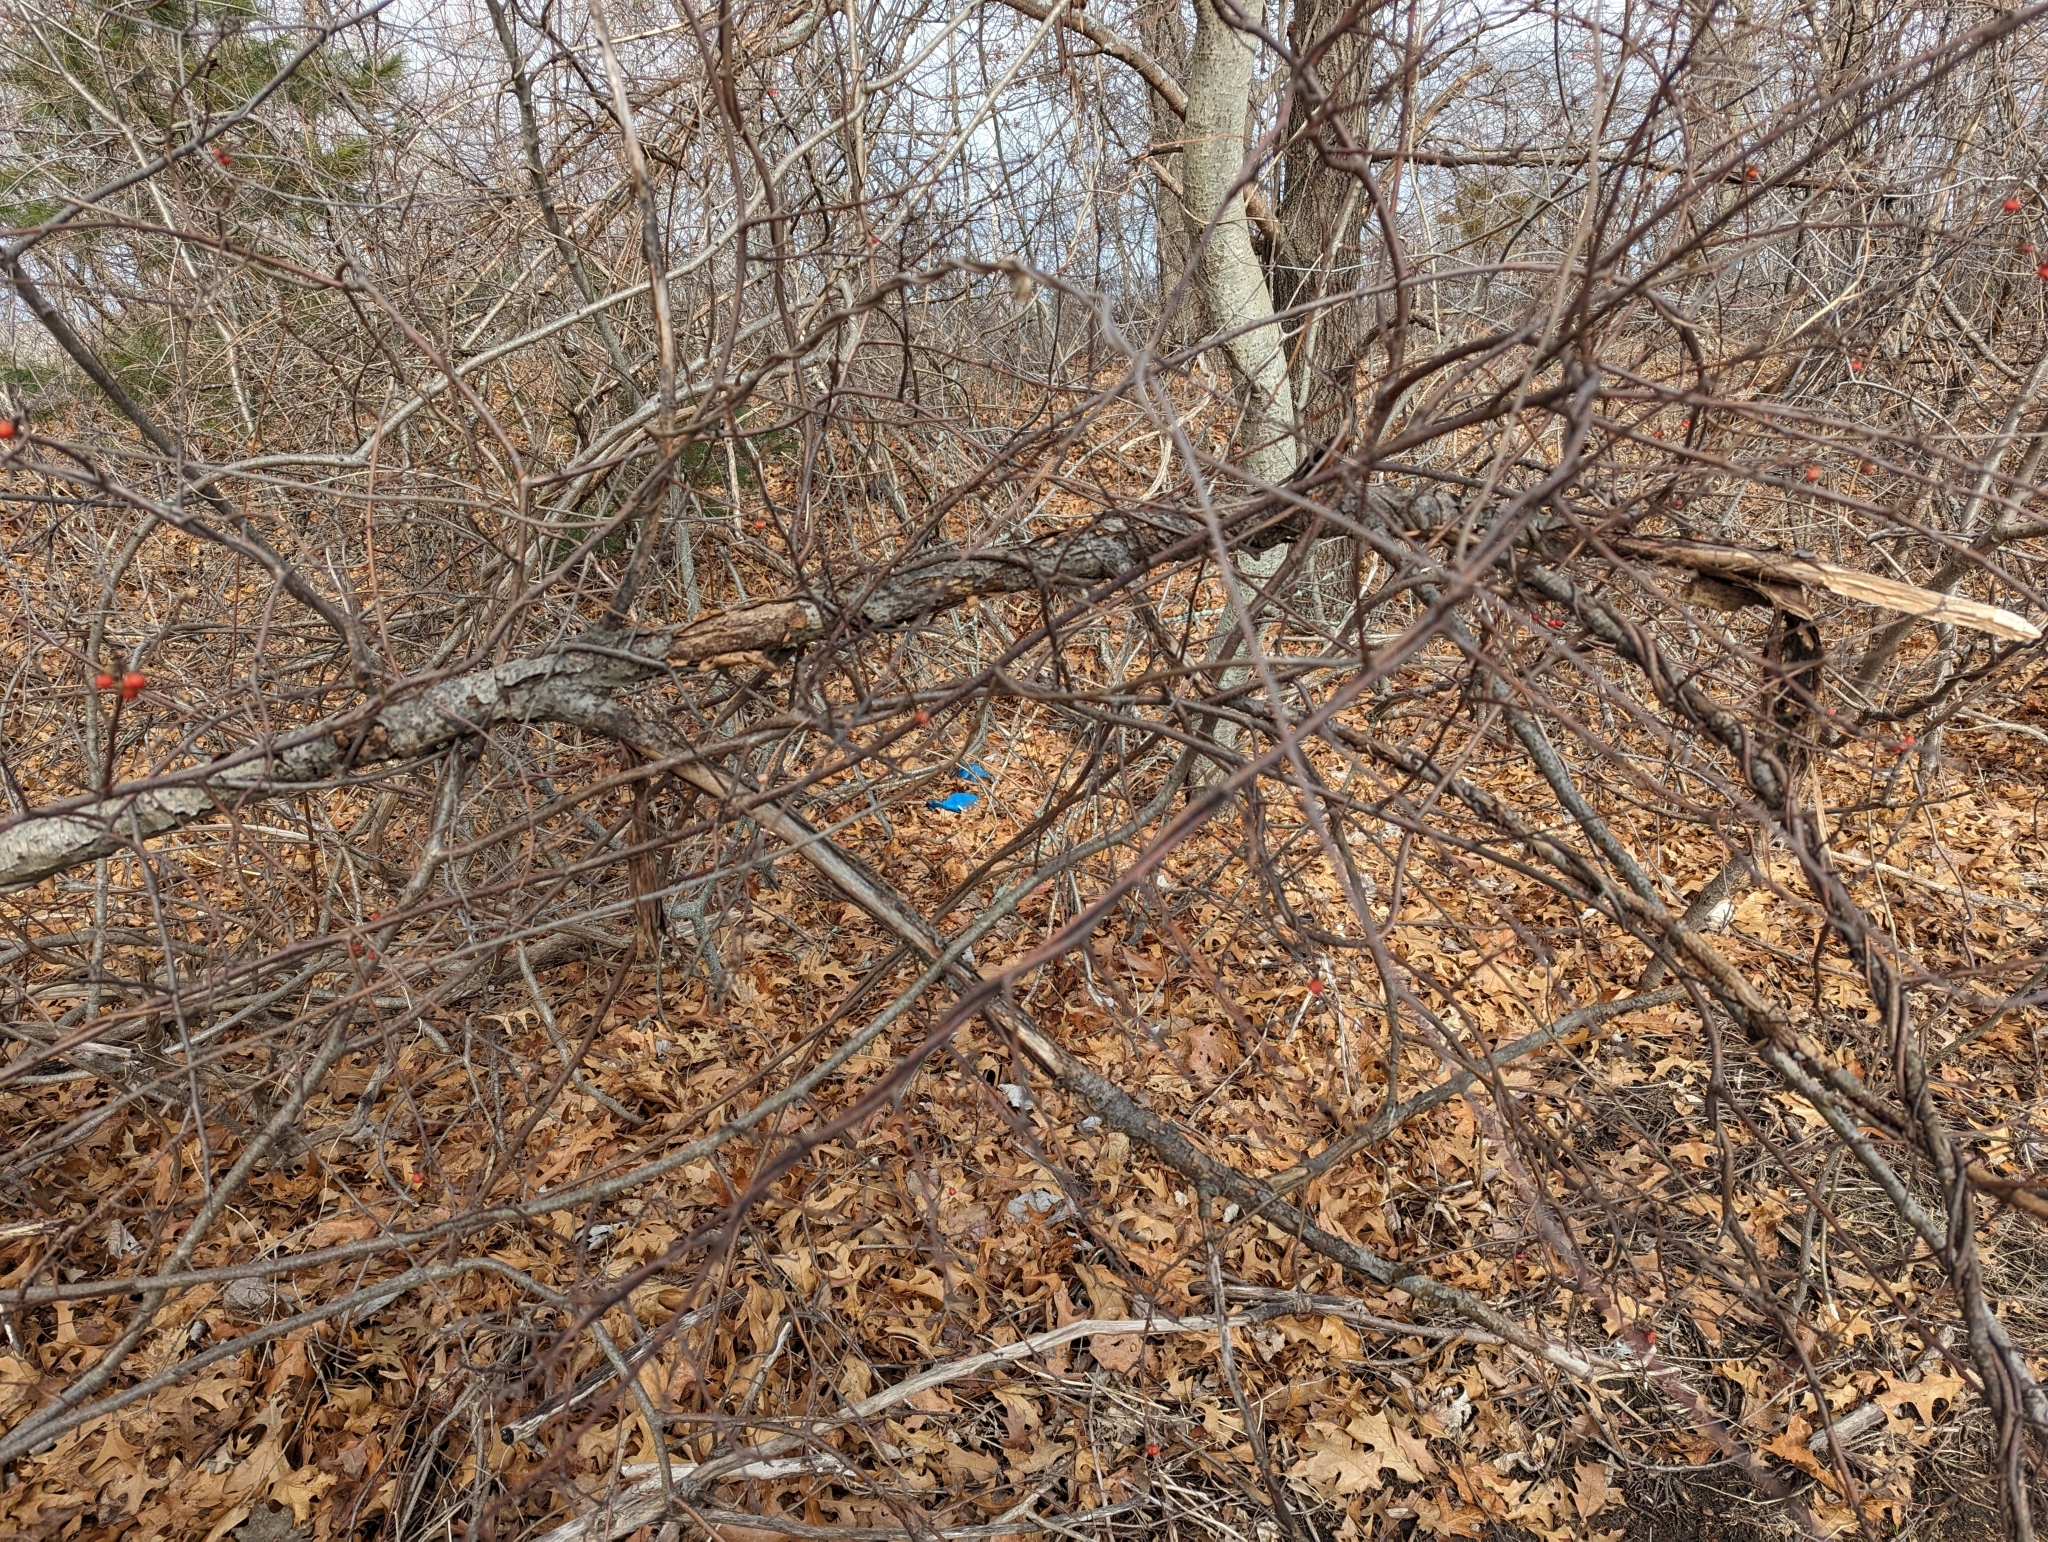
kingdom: Plantae
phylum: Tracheophyta
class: Magnoliopsida
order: Celastrales
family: Celastraceae
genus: Celastrus
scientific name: Celastrus orbiculatus
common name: Oriental bittersweet
